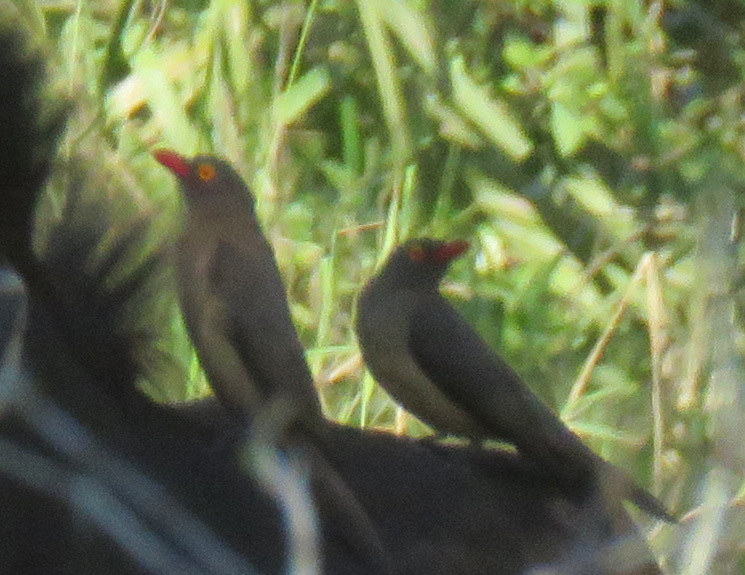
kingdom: Animalia
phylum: Chordata
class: Aves
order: Passeriformes
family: Buphagidae
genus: Buphagus
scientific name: Buphagus erythrorhynchus
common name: Red-billed oxpecker
